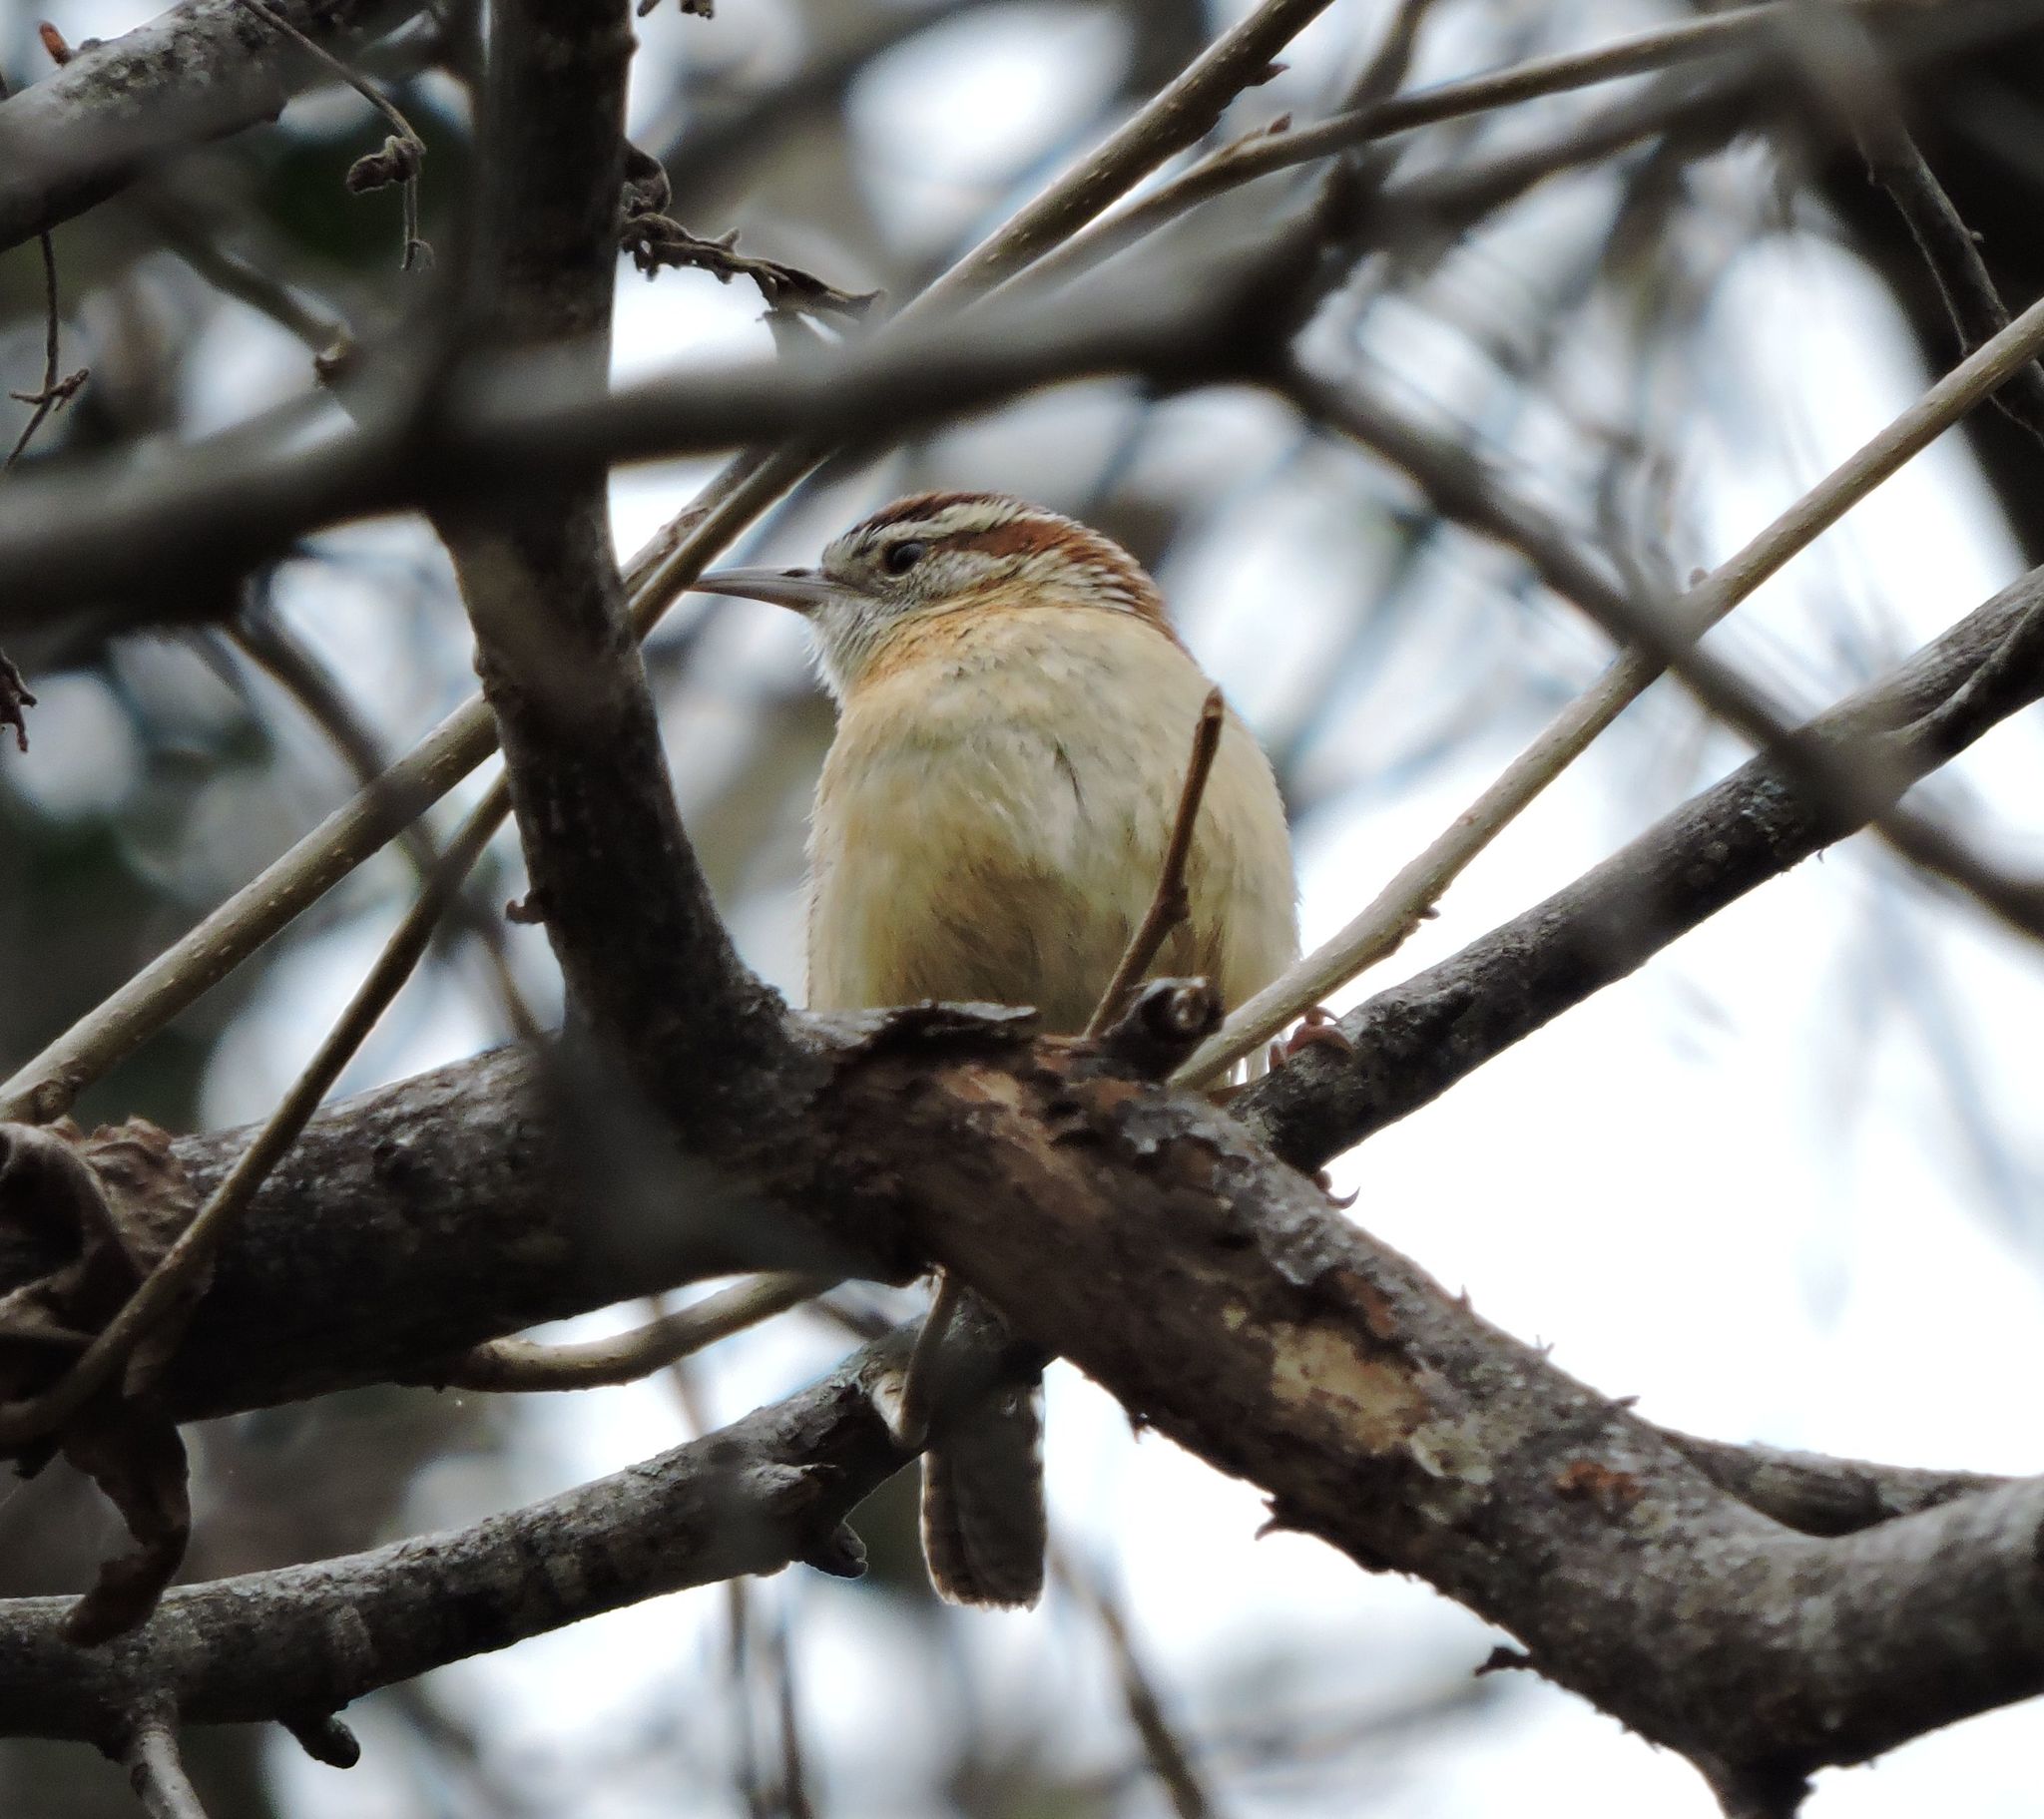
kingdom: Animalia
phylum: Chordata
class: Aves
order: Passeriformes
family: Troglodytidae
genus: Thryothorus
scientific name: Thryothorus ludovicianus
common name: Carolina wren
